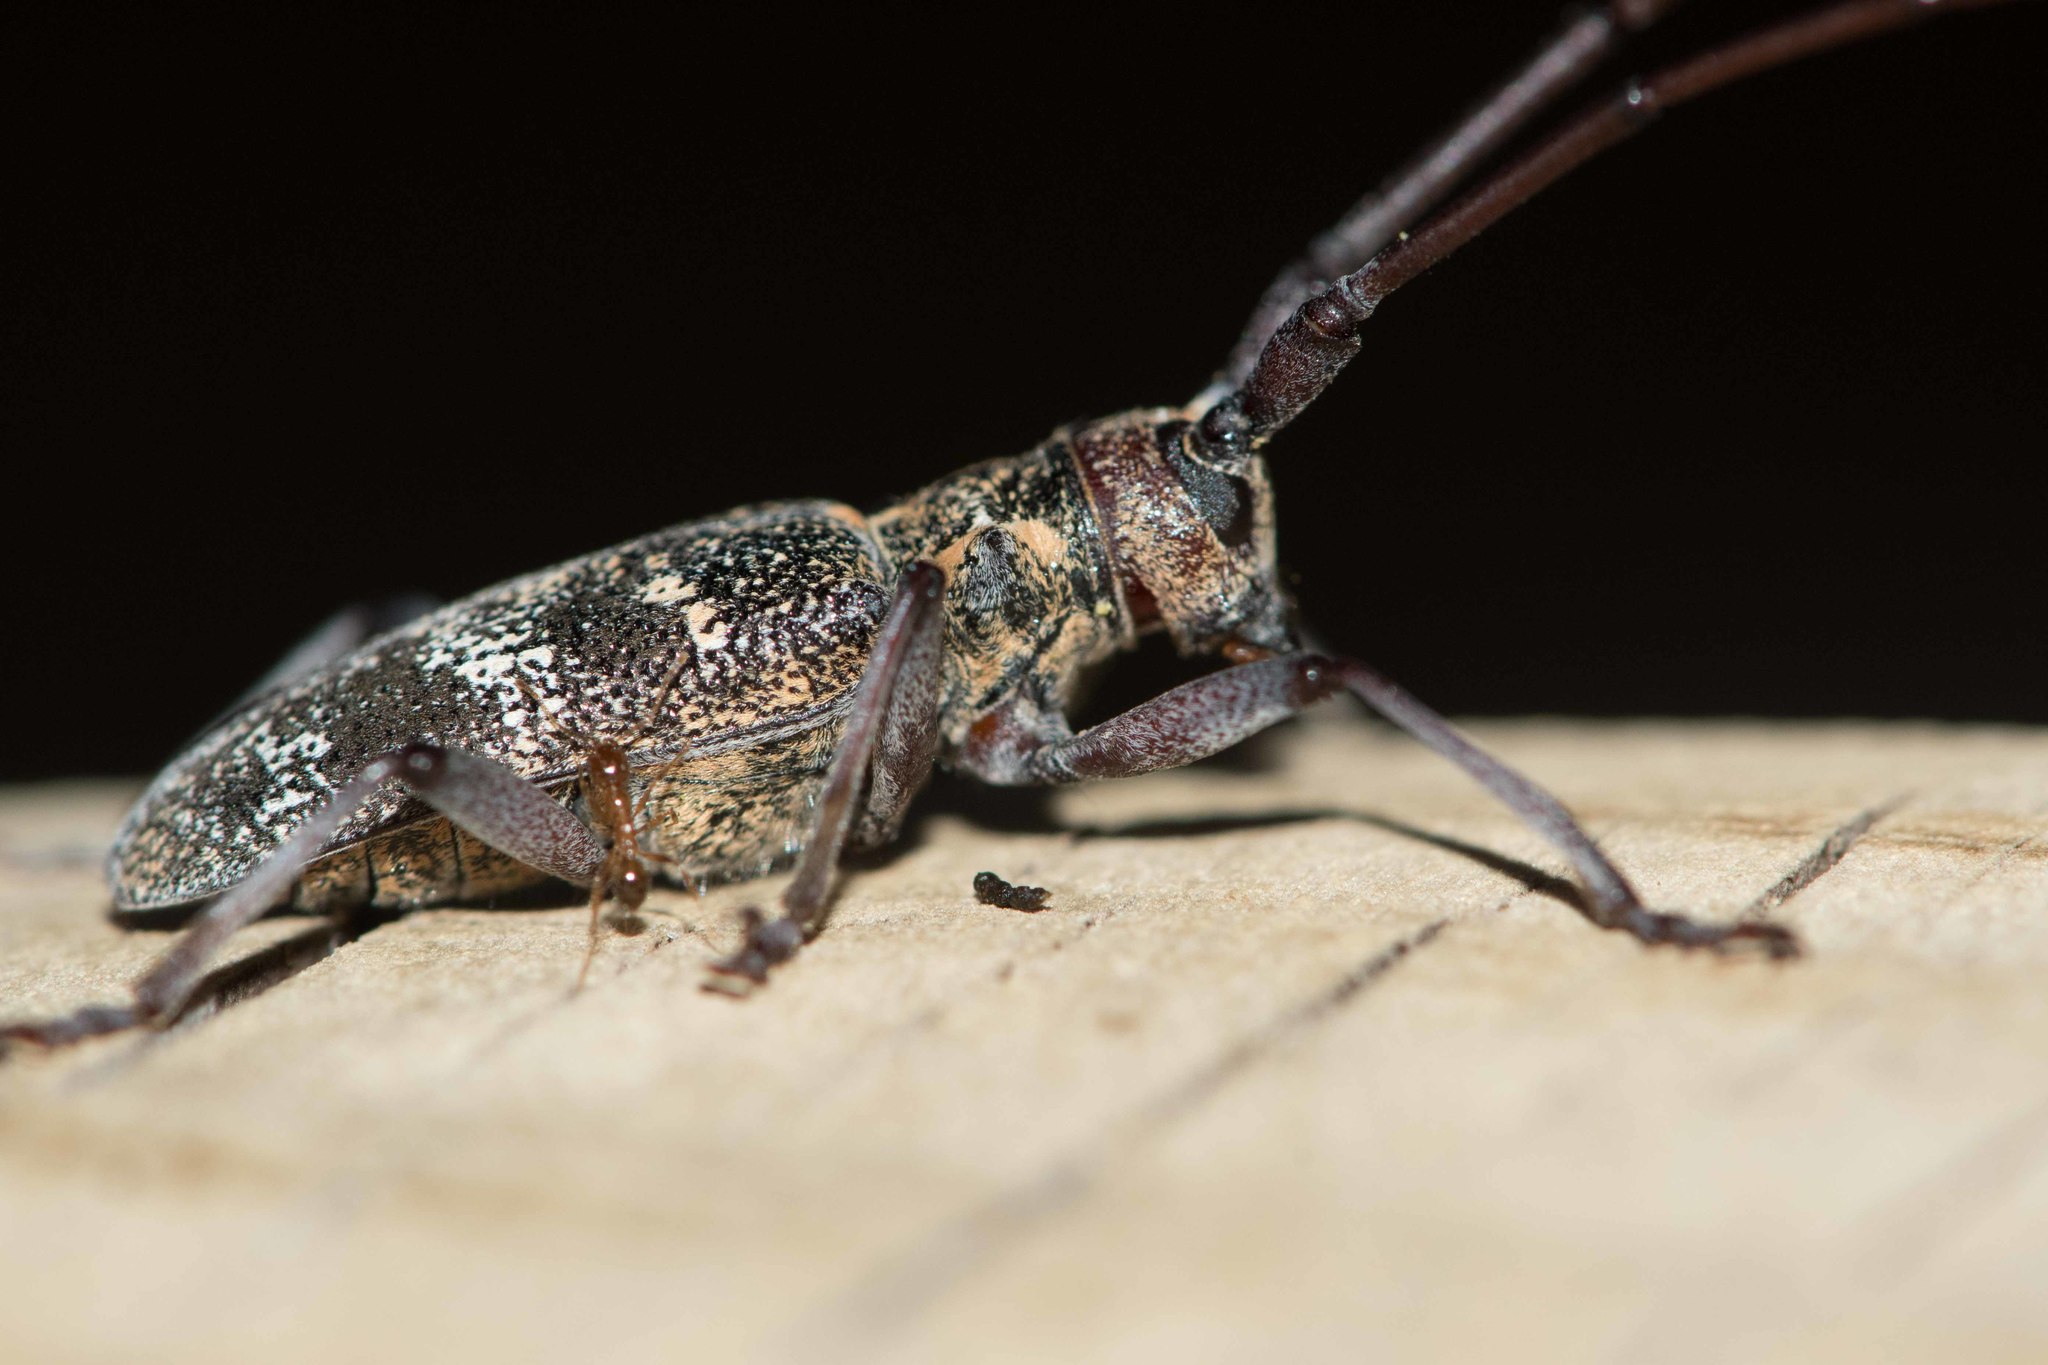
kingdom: Animalia
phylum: Arthropoda
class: Insecta
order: Coleoptera
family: Cerambycidae
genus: Monochamus
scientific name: Monochamus galloprovincialis
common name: Pine sawyer
